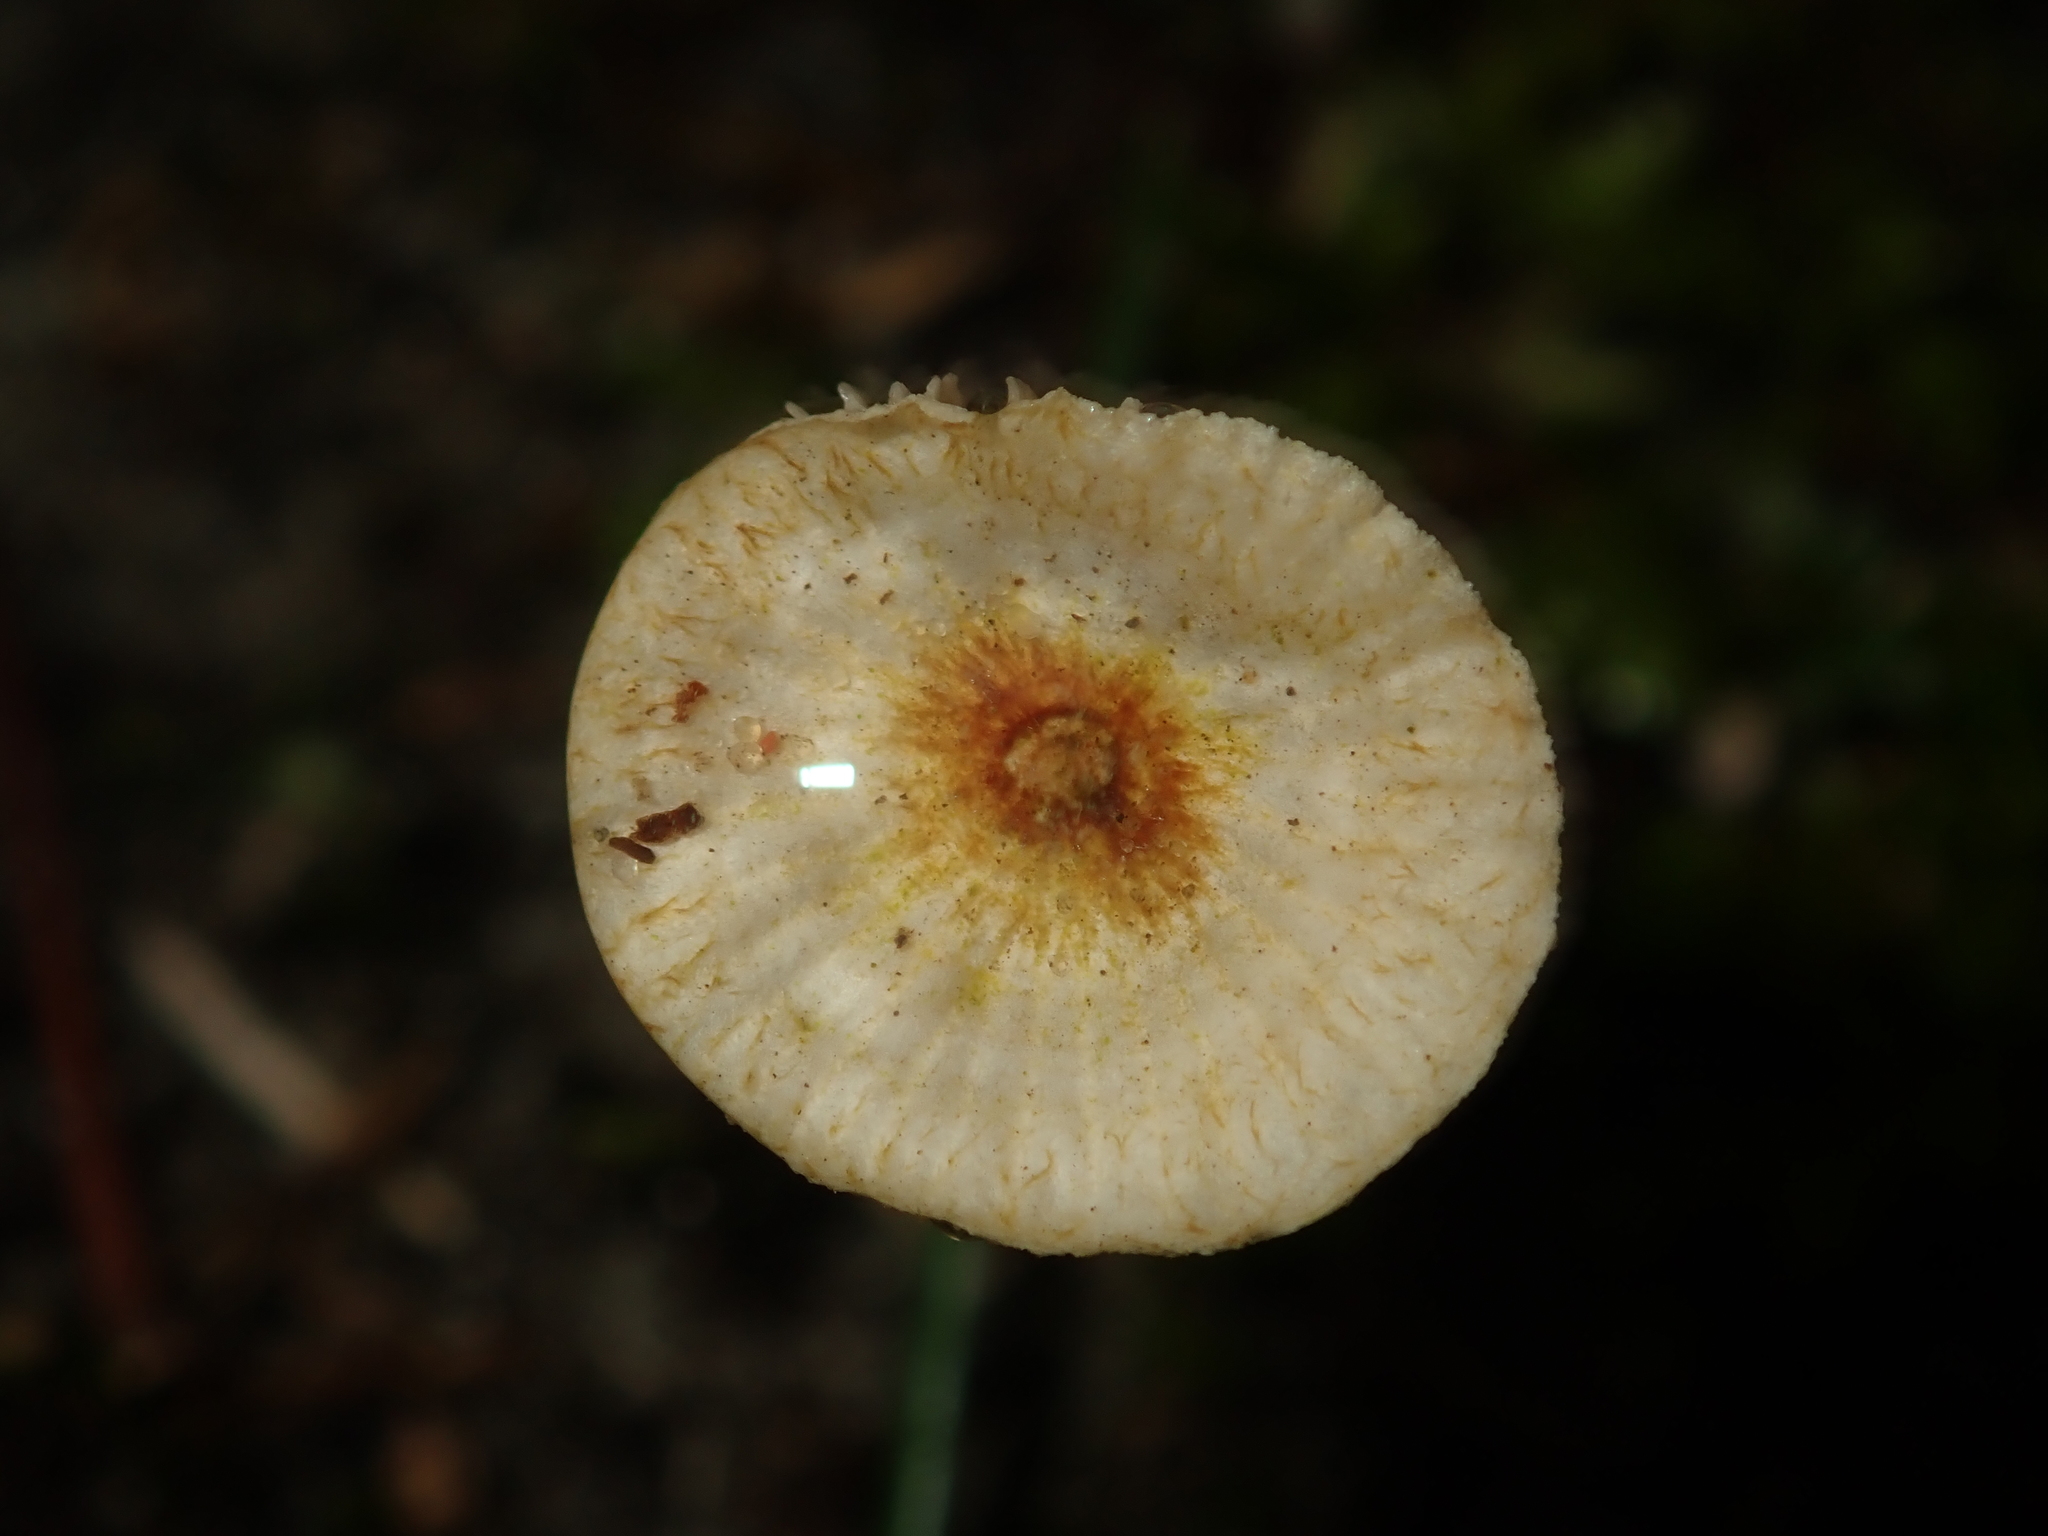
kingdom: Fungi
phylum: Basidiomycota
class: Agaricomycetes
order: Agaricales
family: Marasmiaceae
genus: Crinipellis
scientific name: Crinipellis scabella
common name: Hairy parachute
